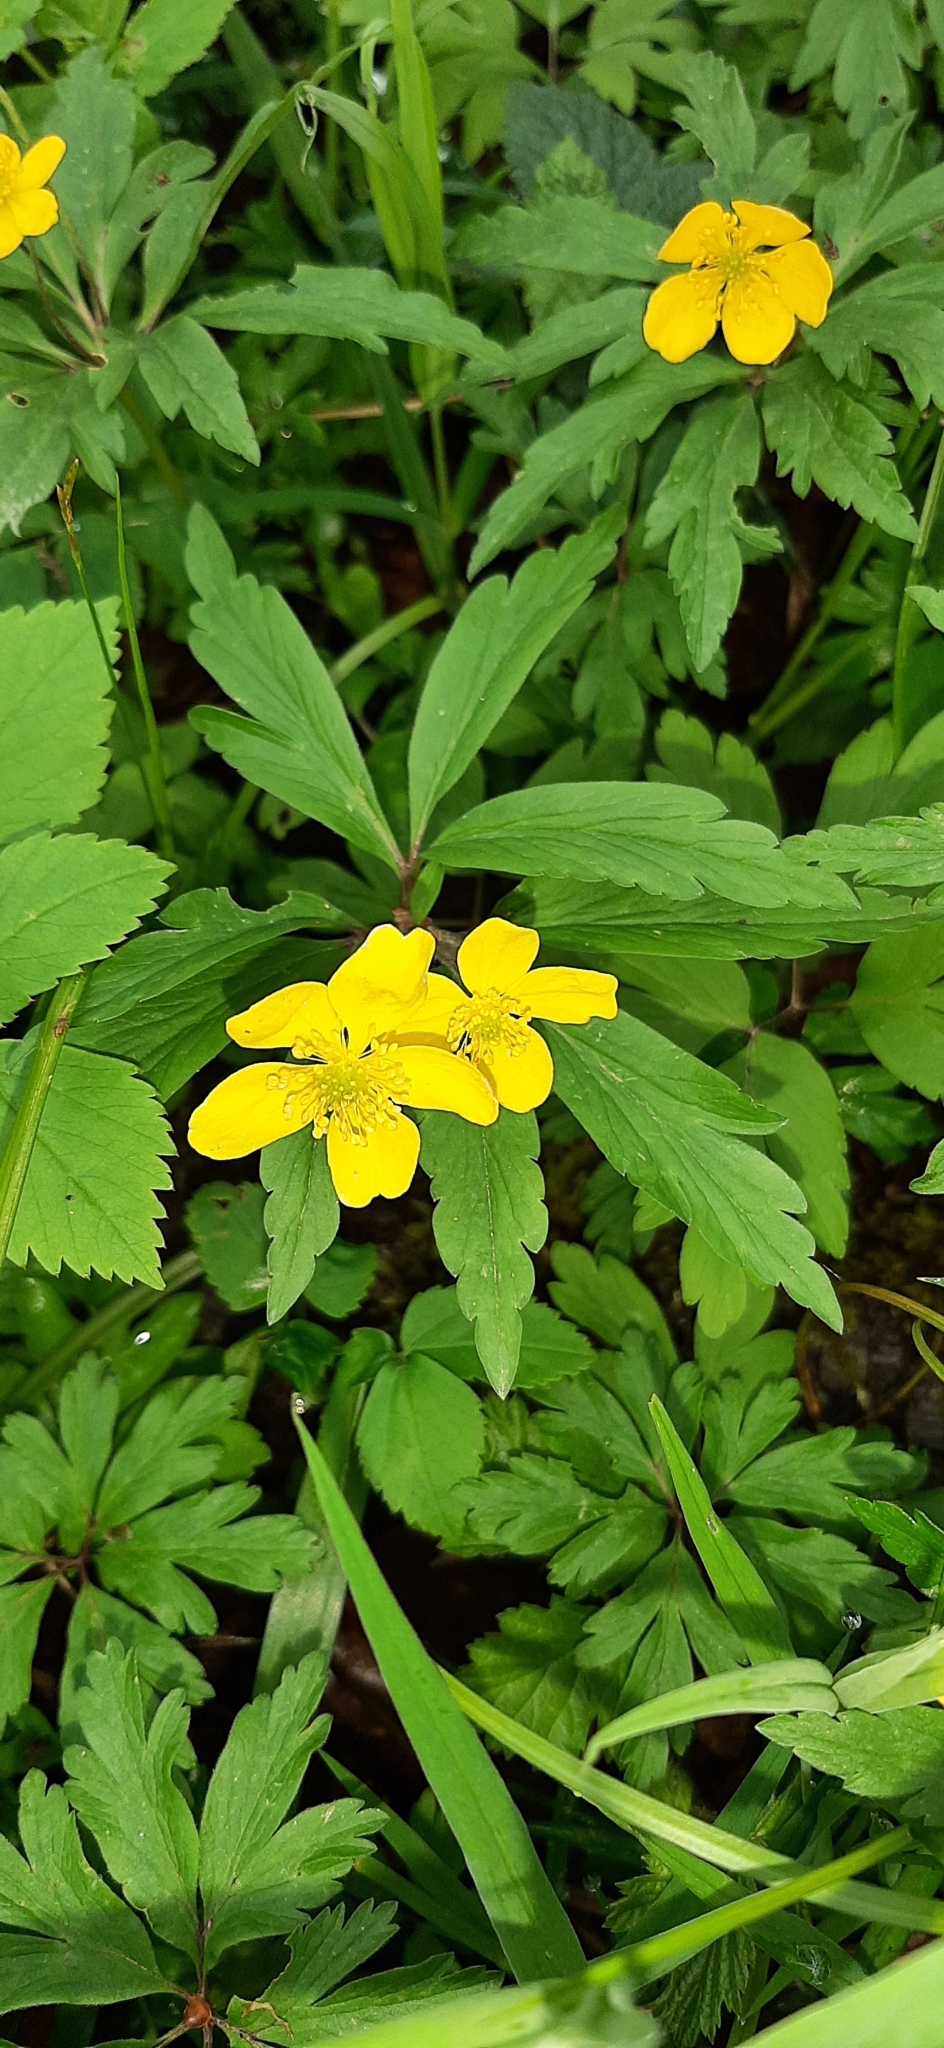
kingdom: Plantae
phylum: Tracheophyta
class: Magnoliopsida
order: Ranunculales
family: Ranunculaceae
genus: Anemone
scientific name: Anemone ranunculoides
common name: Yellow anemone
